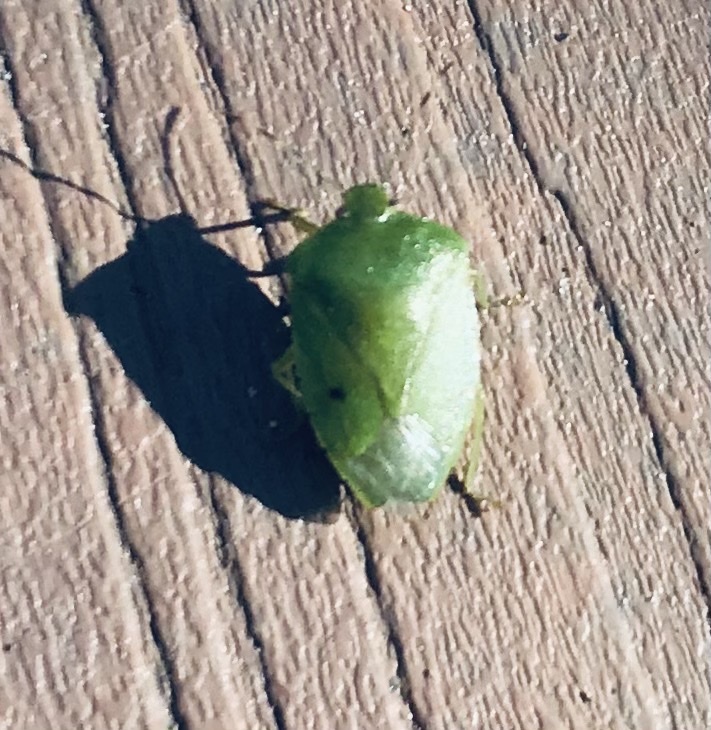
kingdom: Animalia
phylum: Arthropoda
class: Insecta
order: Hemiptera
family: Pentatomidae
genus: Chinavia
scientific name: Chinavia hilaris
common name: Green stink bug
